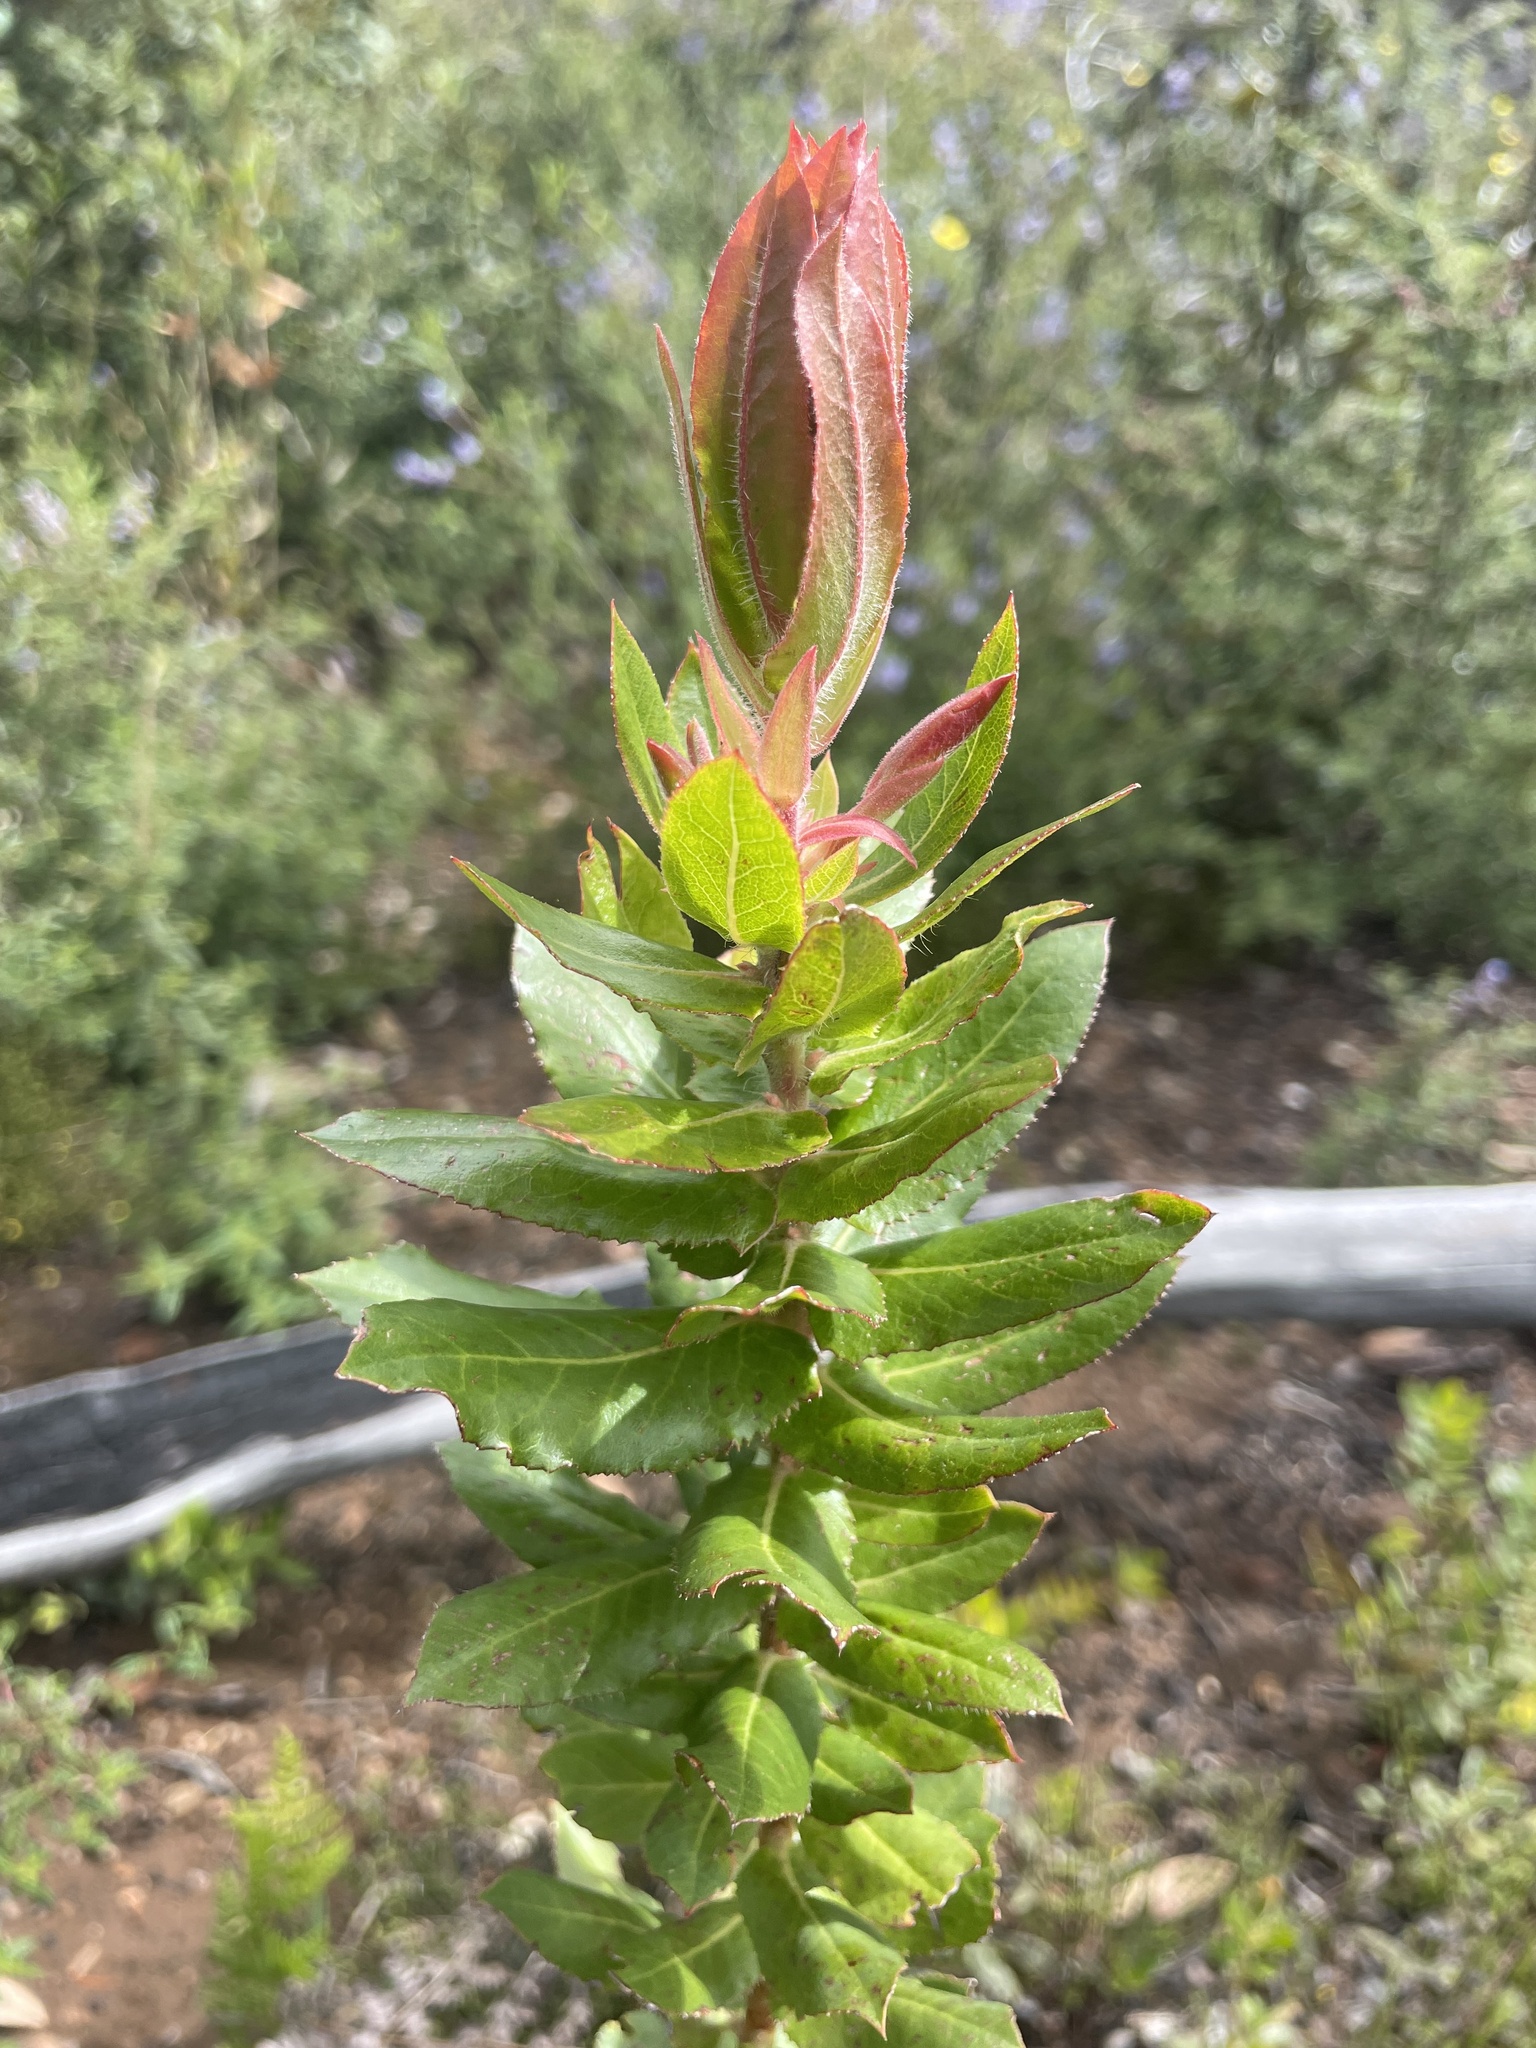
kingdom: Plantae
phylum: Tracheophyta
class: Magnoliopsida
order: Ericales
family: Ericaceae
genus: Arctostaphylos
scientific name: Arctostaphylos andersonii
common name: Santa cruz manzanita
